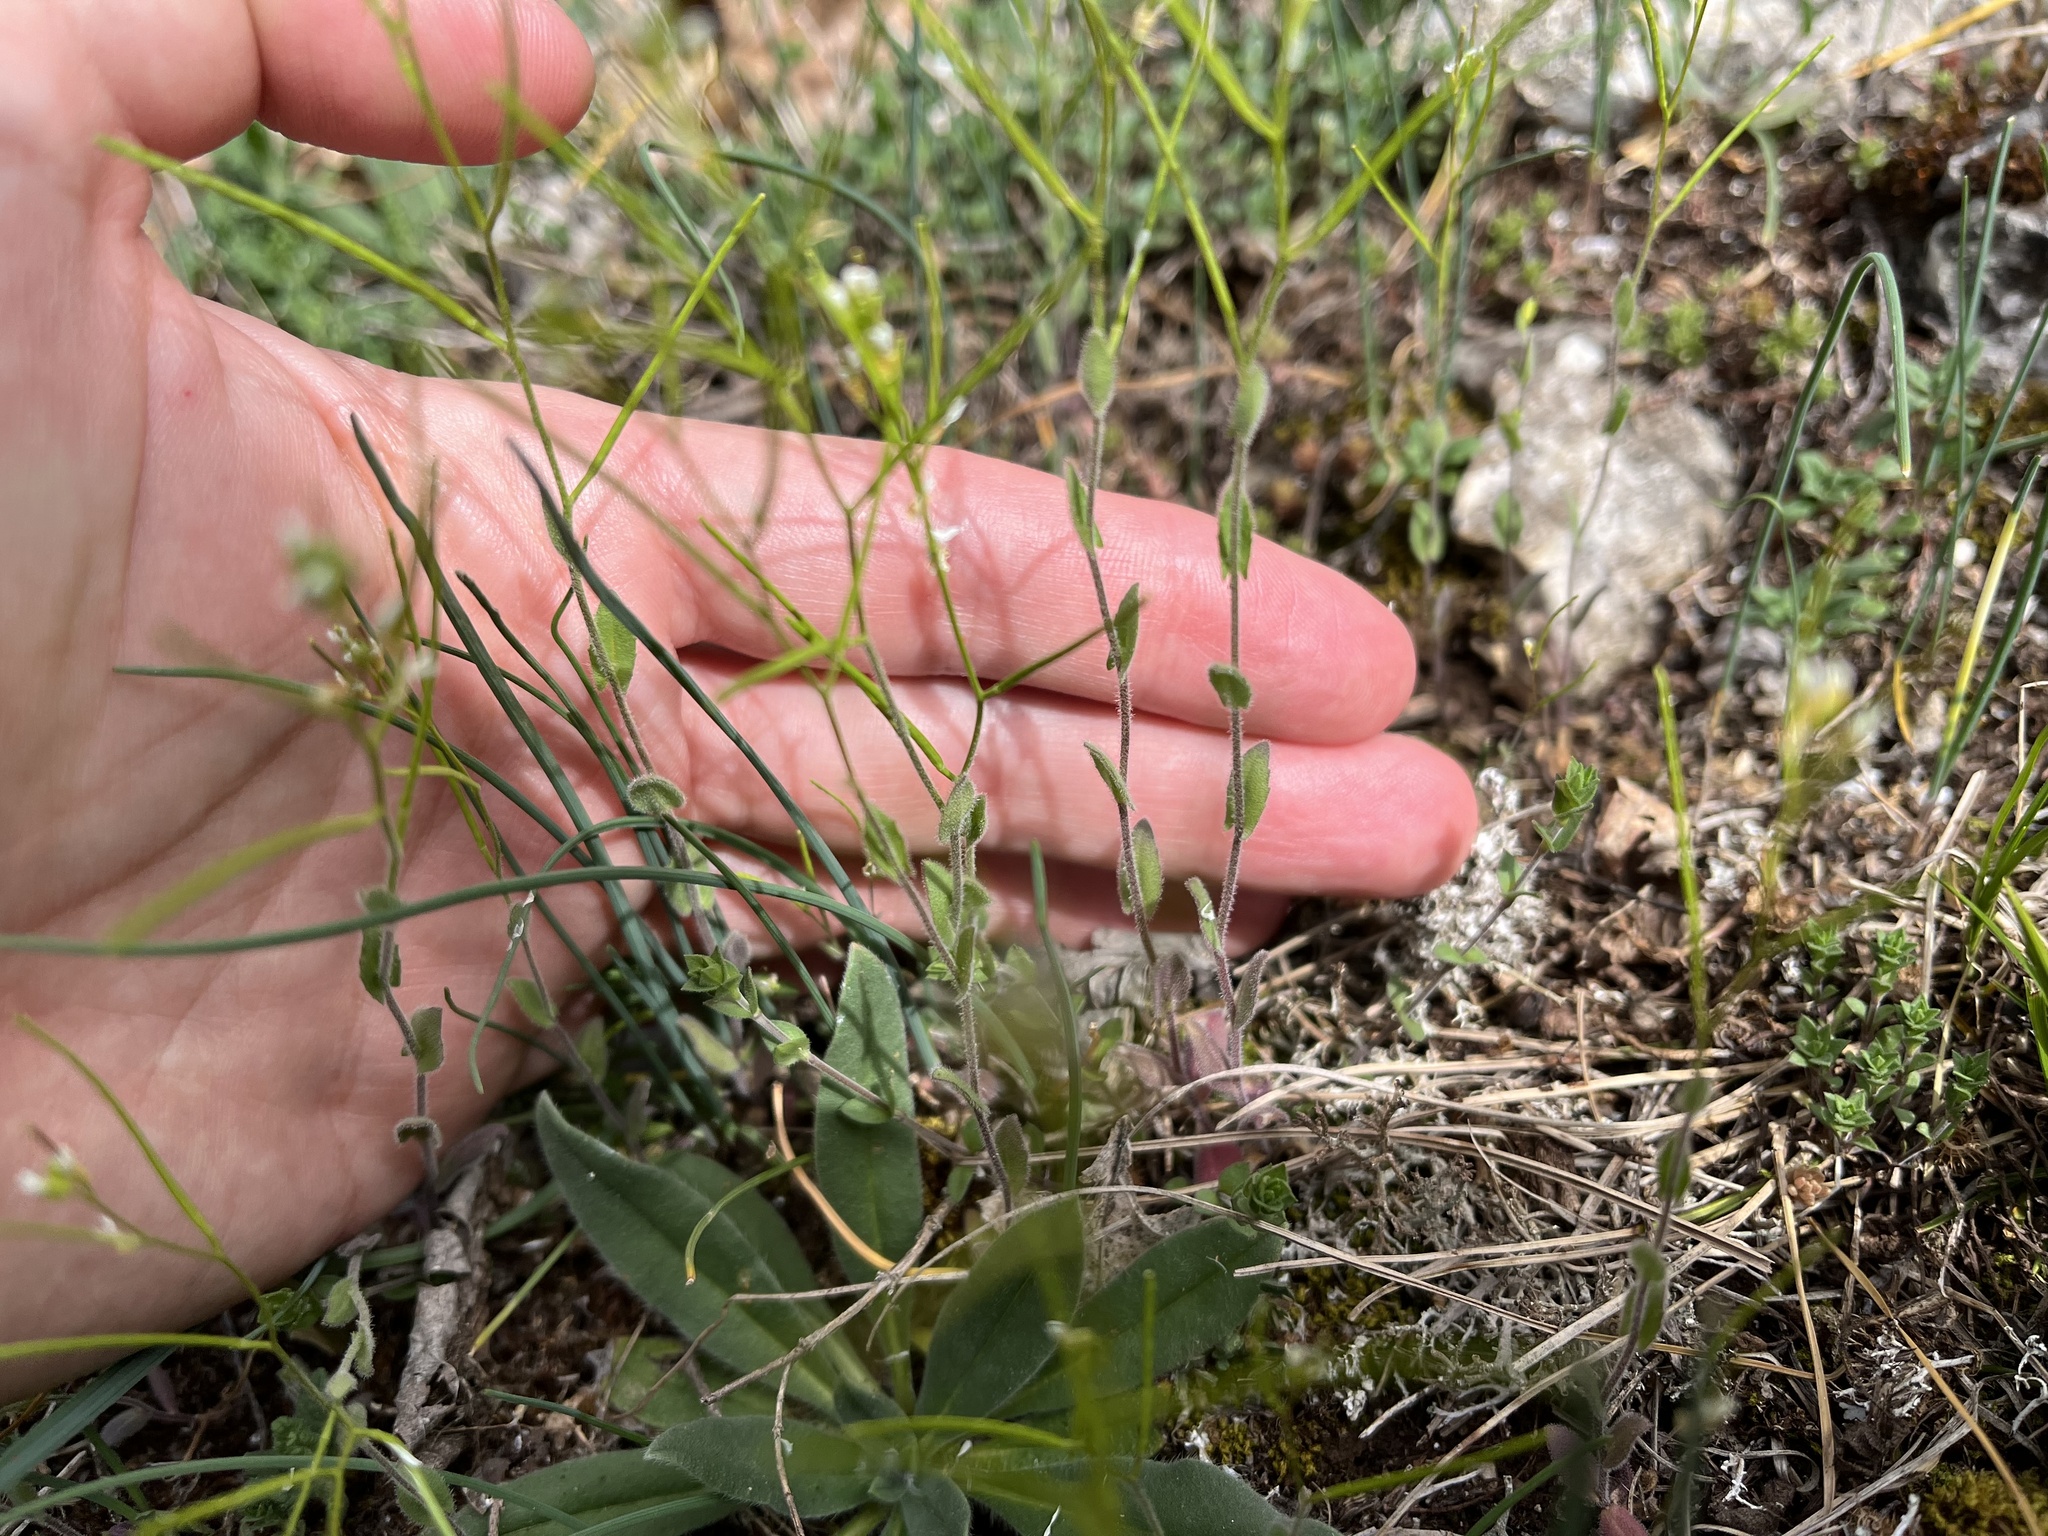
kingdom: Plantae
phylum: Tracheophyta
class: Magnoliopsida
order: Brassicales
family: Brassicaceae
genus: Arabis
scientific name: Arabis auriculata
